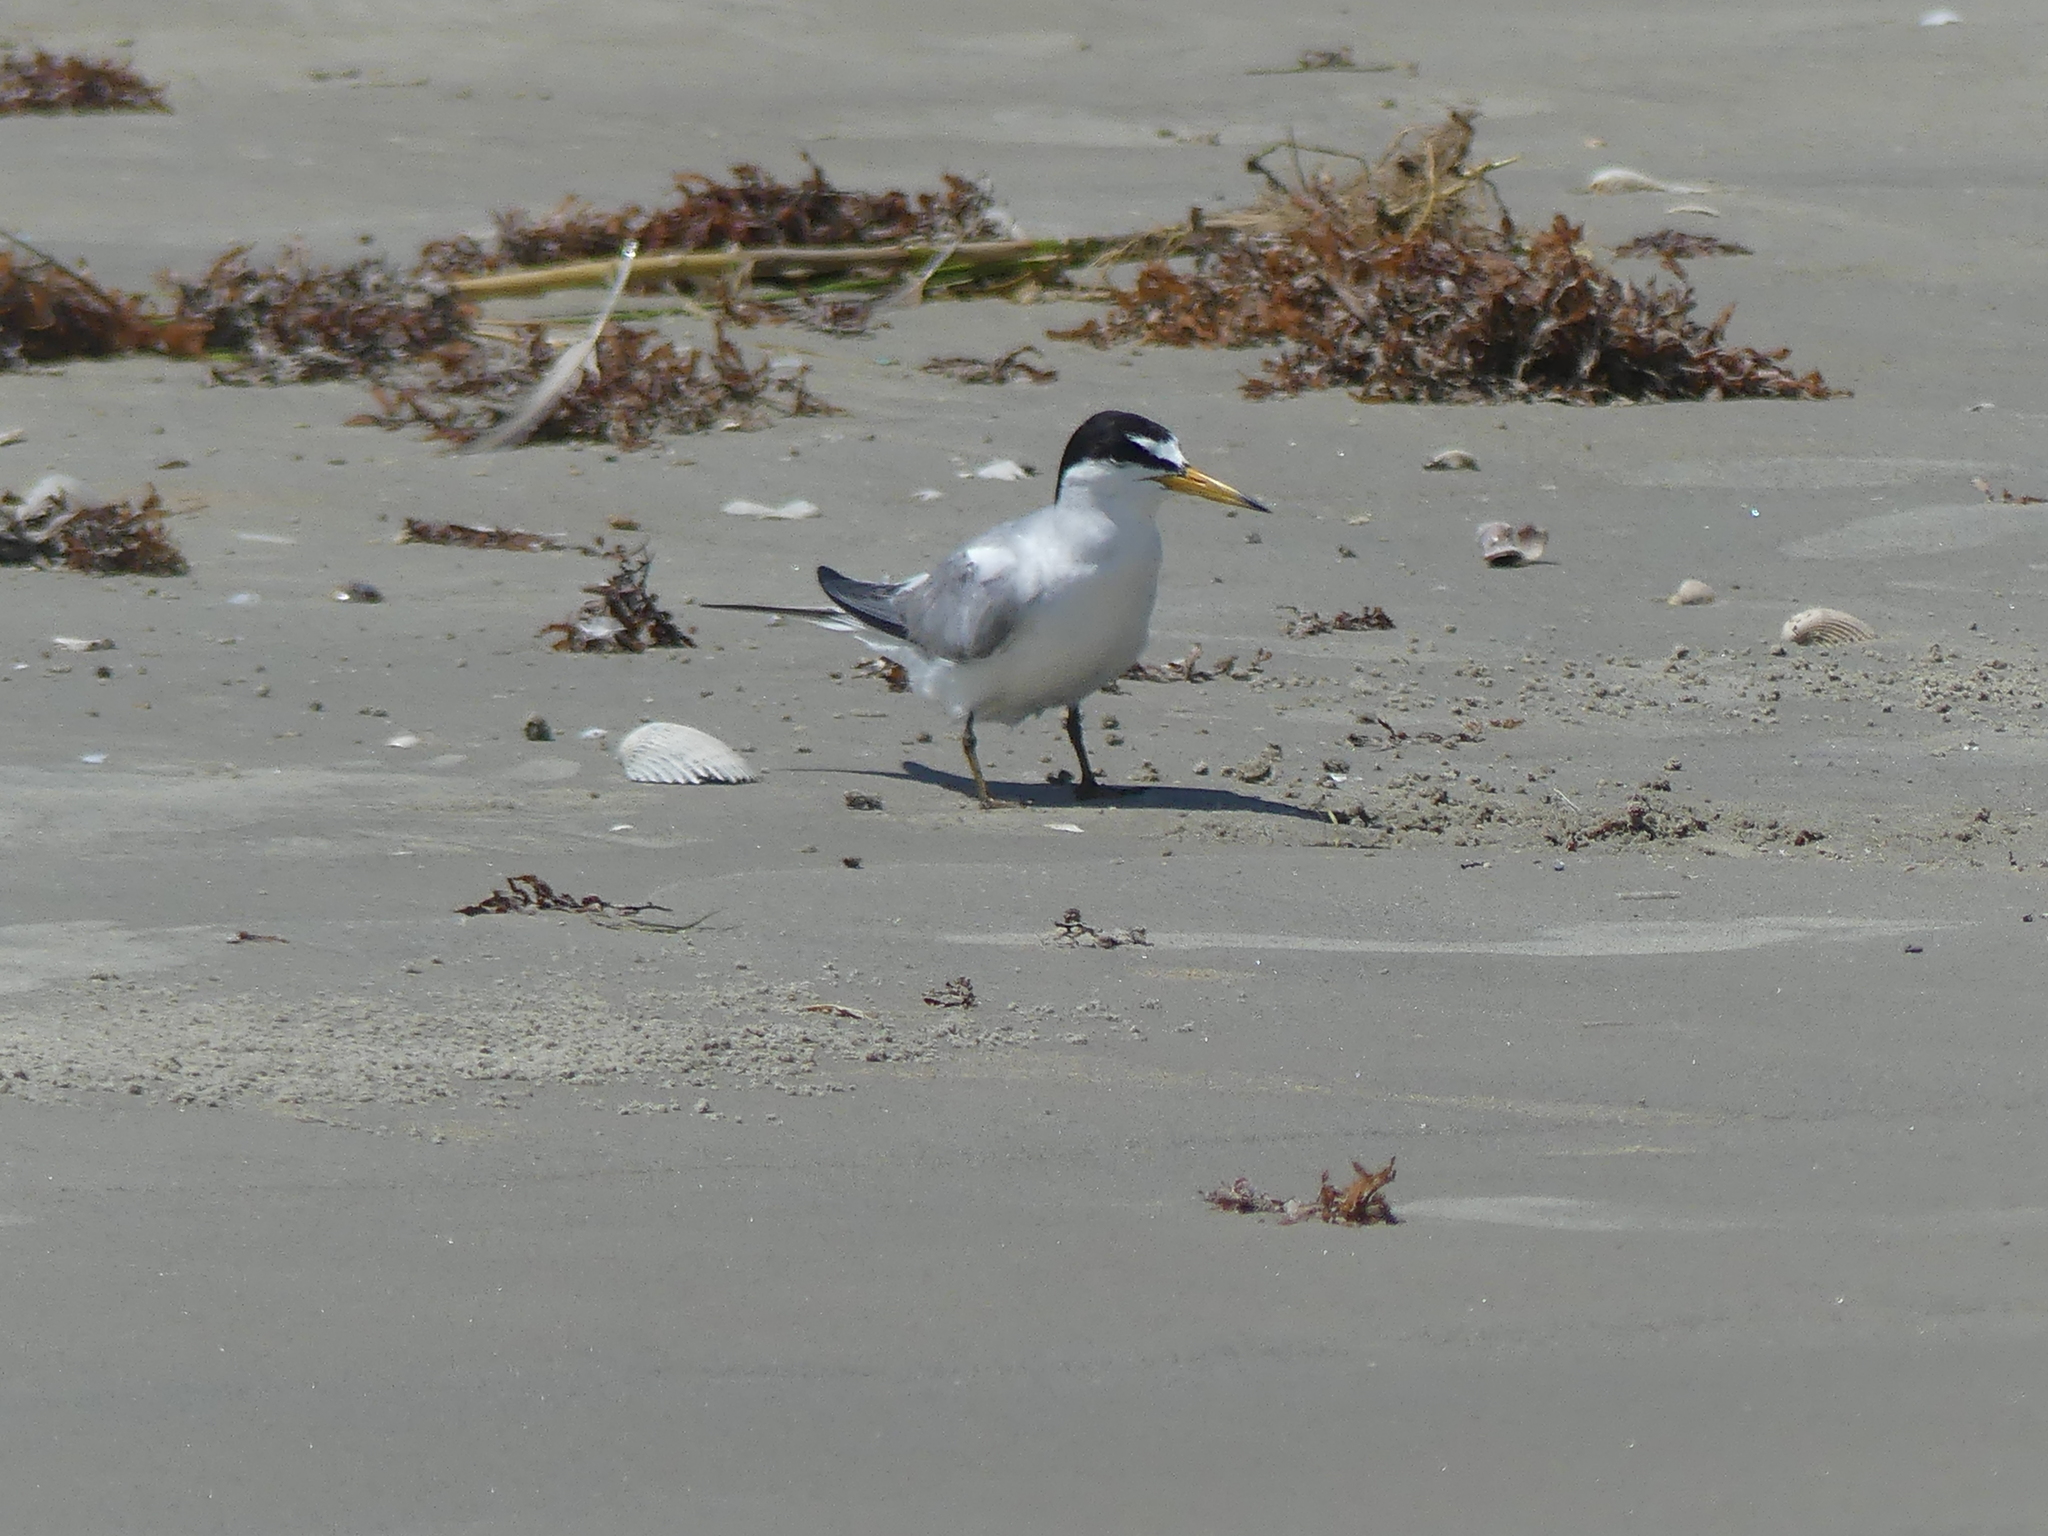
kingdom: Animalia
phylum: Chordata
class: Aves
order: Charadriiformes
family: Laridae
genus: Sternula
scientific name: Sternula antillarum
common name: Least tern
